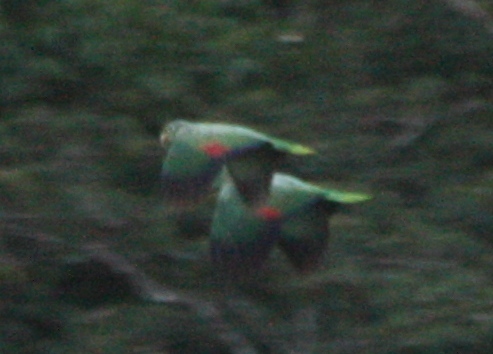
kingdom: Animalia
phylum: Chordata
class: Aves
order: Psittaciformes
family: Psittacidae
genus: Amazona
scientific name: Amazona farinosa
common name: Mealy parrot
